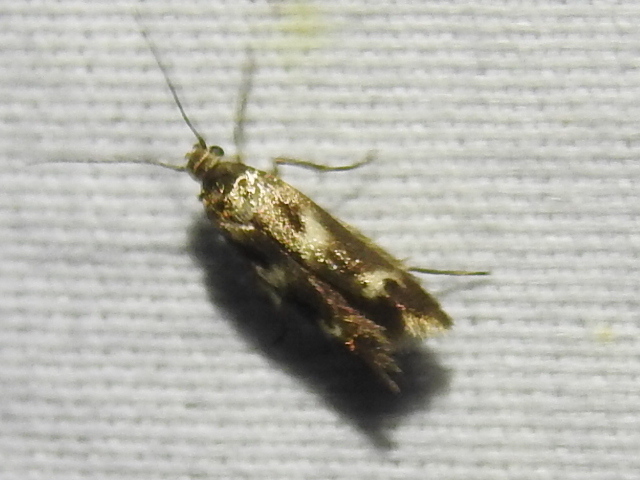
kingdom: Animalia
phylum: Arthropoda
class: Insecta
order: Lepidoptera
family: Scythrididae
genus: Scythris
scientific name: Scythris trivinctella
